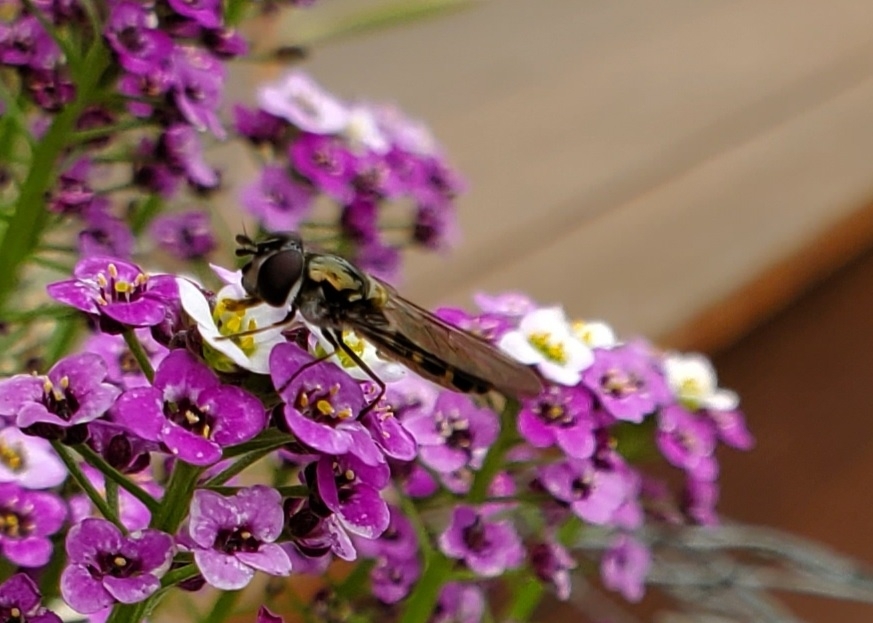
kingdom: Animalia
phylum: Arthropoda
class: Insecta
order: Diptera
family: Syrphidae
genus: Melangyna
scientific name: Melangyna novaezelandiae
